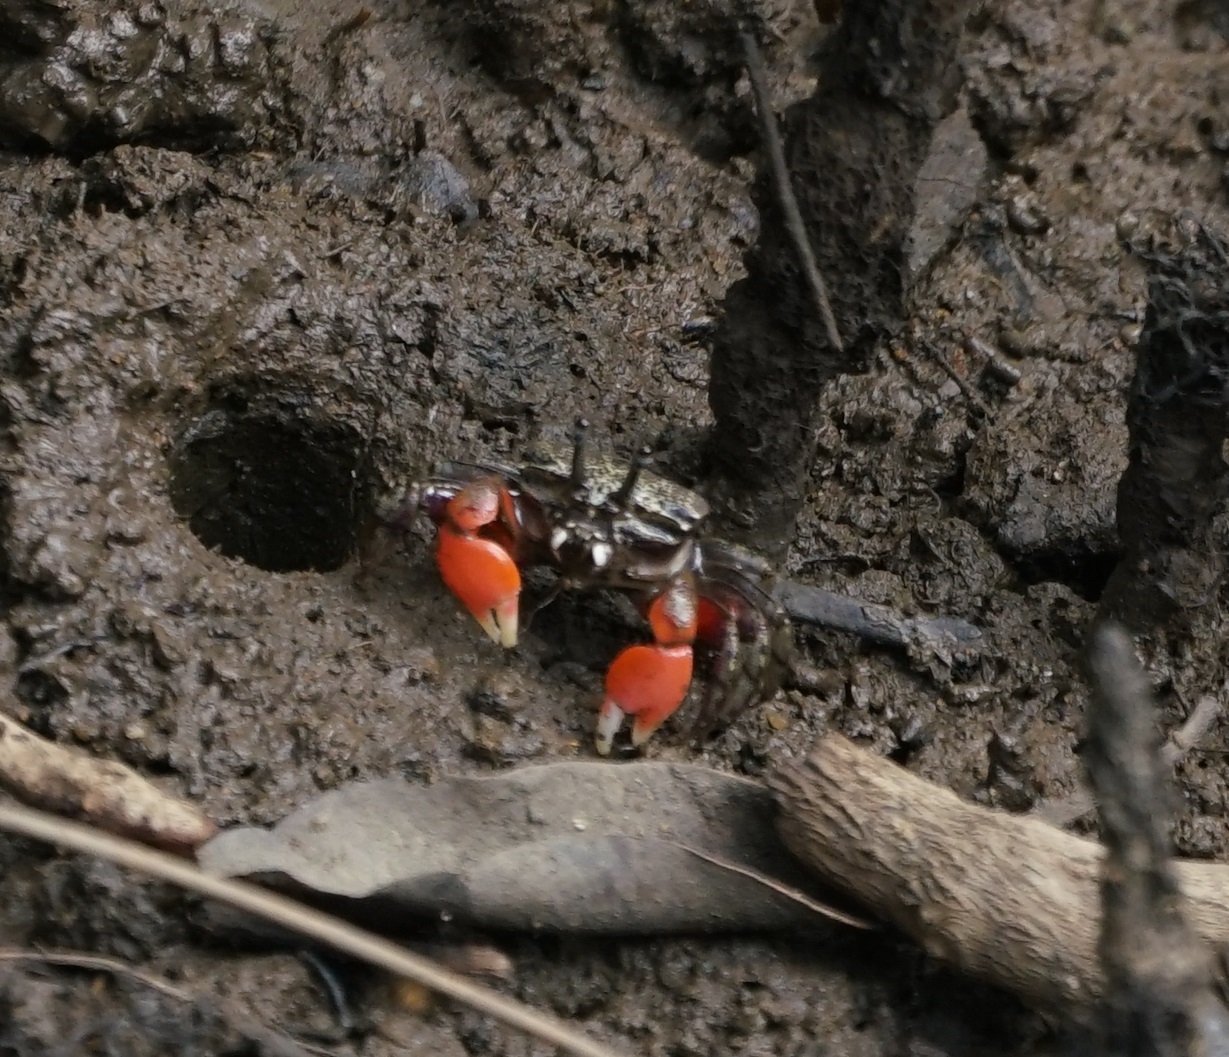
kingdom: Animalia
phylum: Arthropoda
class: Malacostraca
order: Decapoda
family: Heloeciidae
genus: Heloecius
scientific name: Heloecius cordiformis
